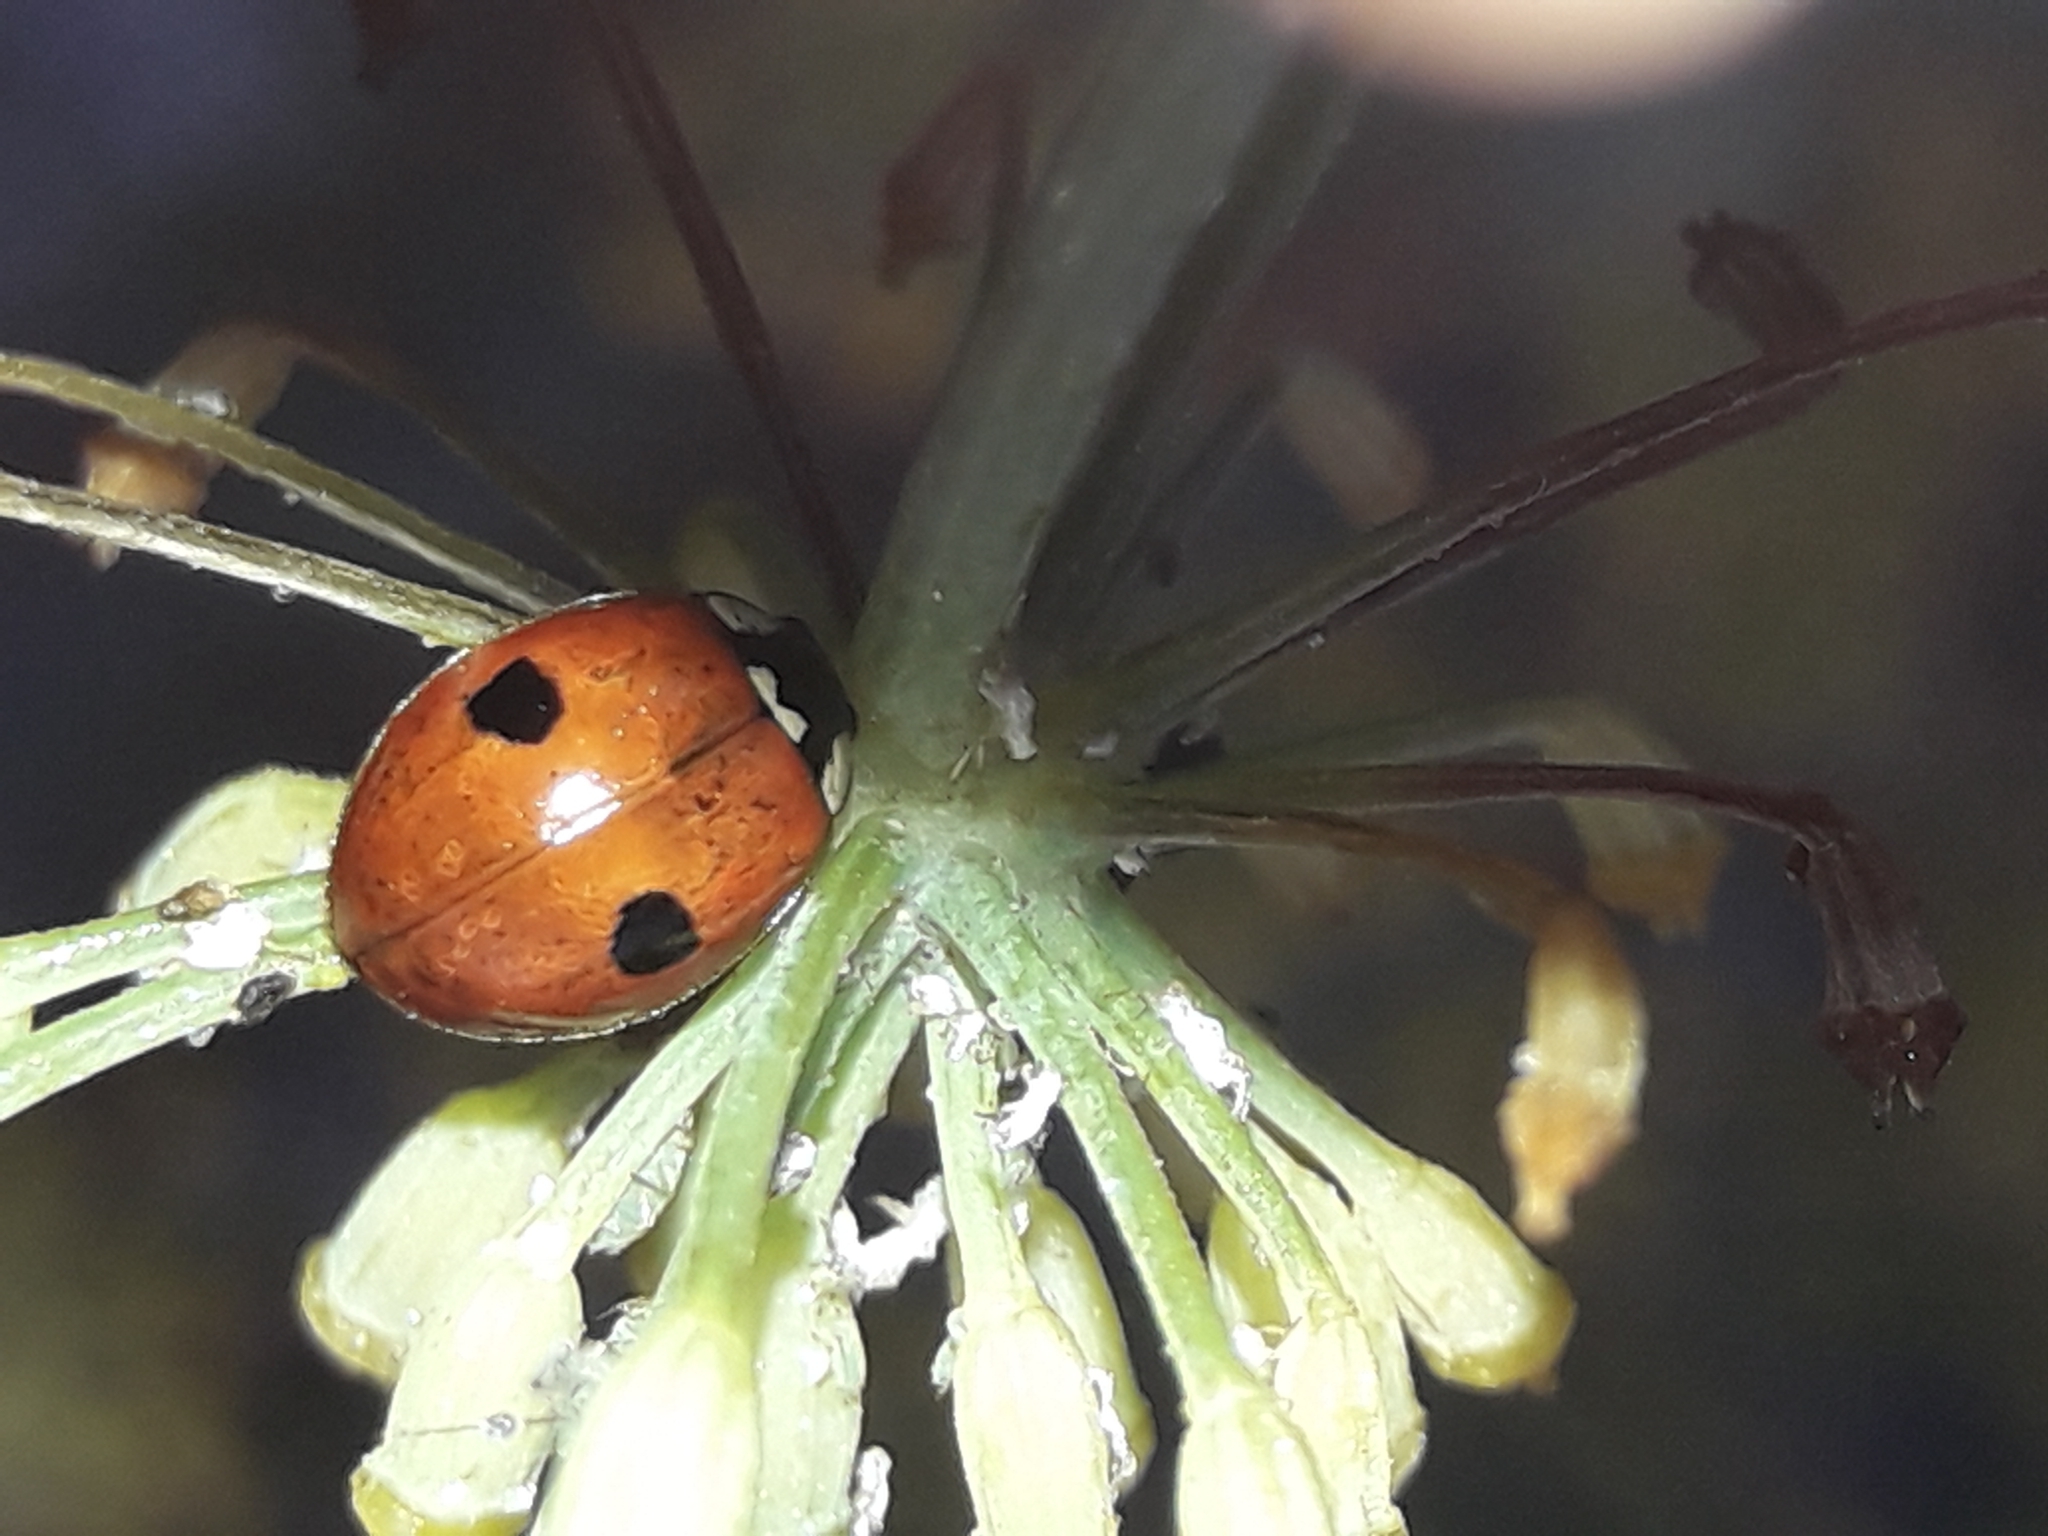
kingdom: Animalia
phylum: Arthropoda
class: Insecta
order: Coleoptera
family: Coccinellidae
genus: Adalia
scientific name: Adalia bipunctata
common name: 2-spot ladybird
